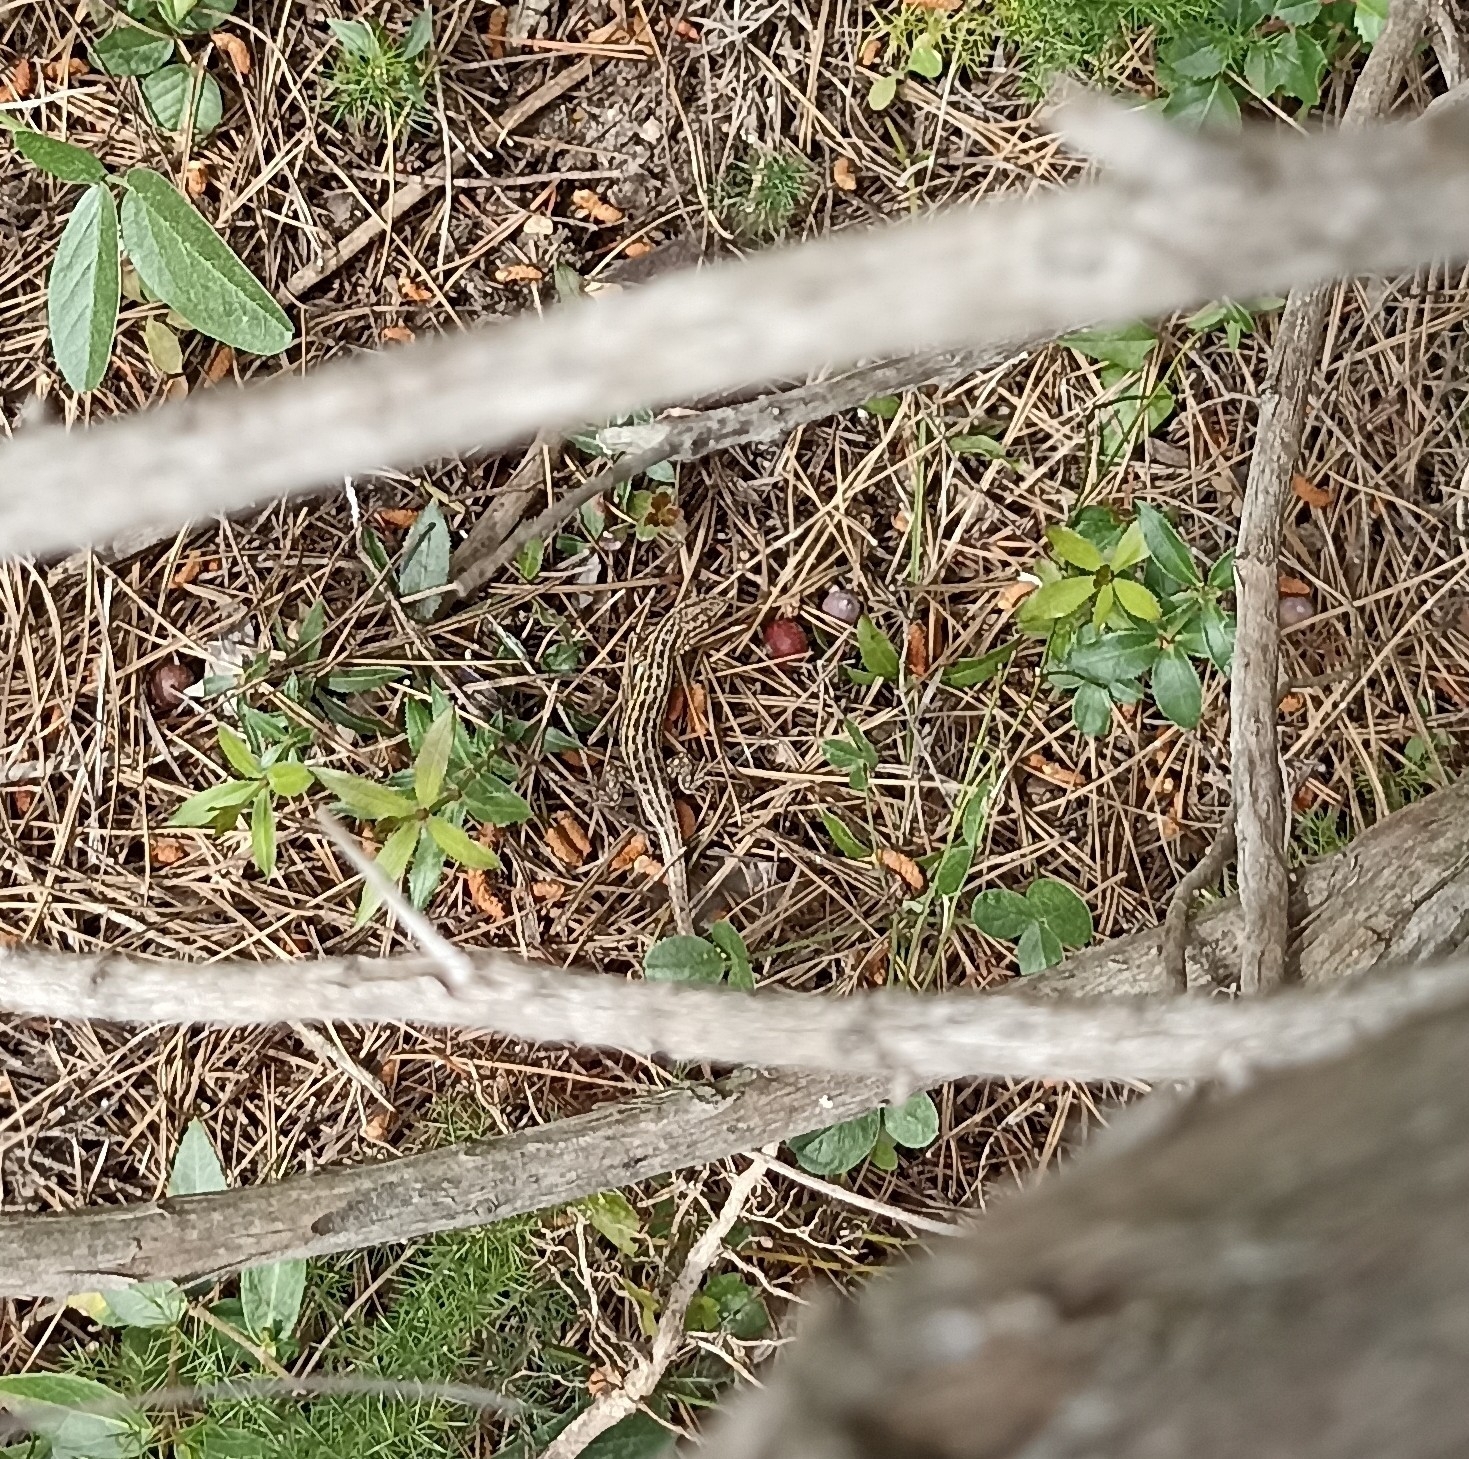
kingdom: Animalia
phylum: Chordata
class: Squamata
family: Lacertidae
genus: Psammodromus
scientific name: Psammodromus edwarsianus
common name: East iberian psammodromus
